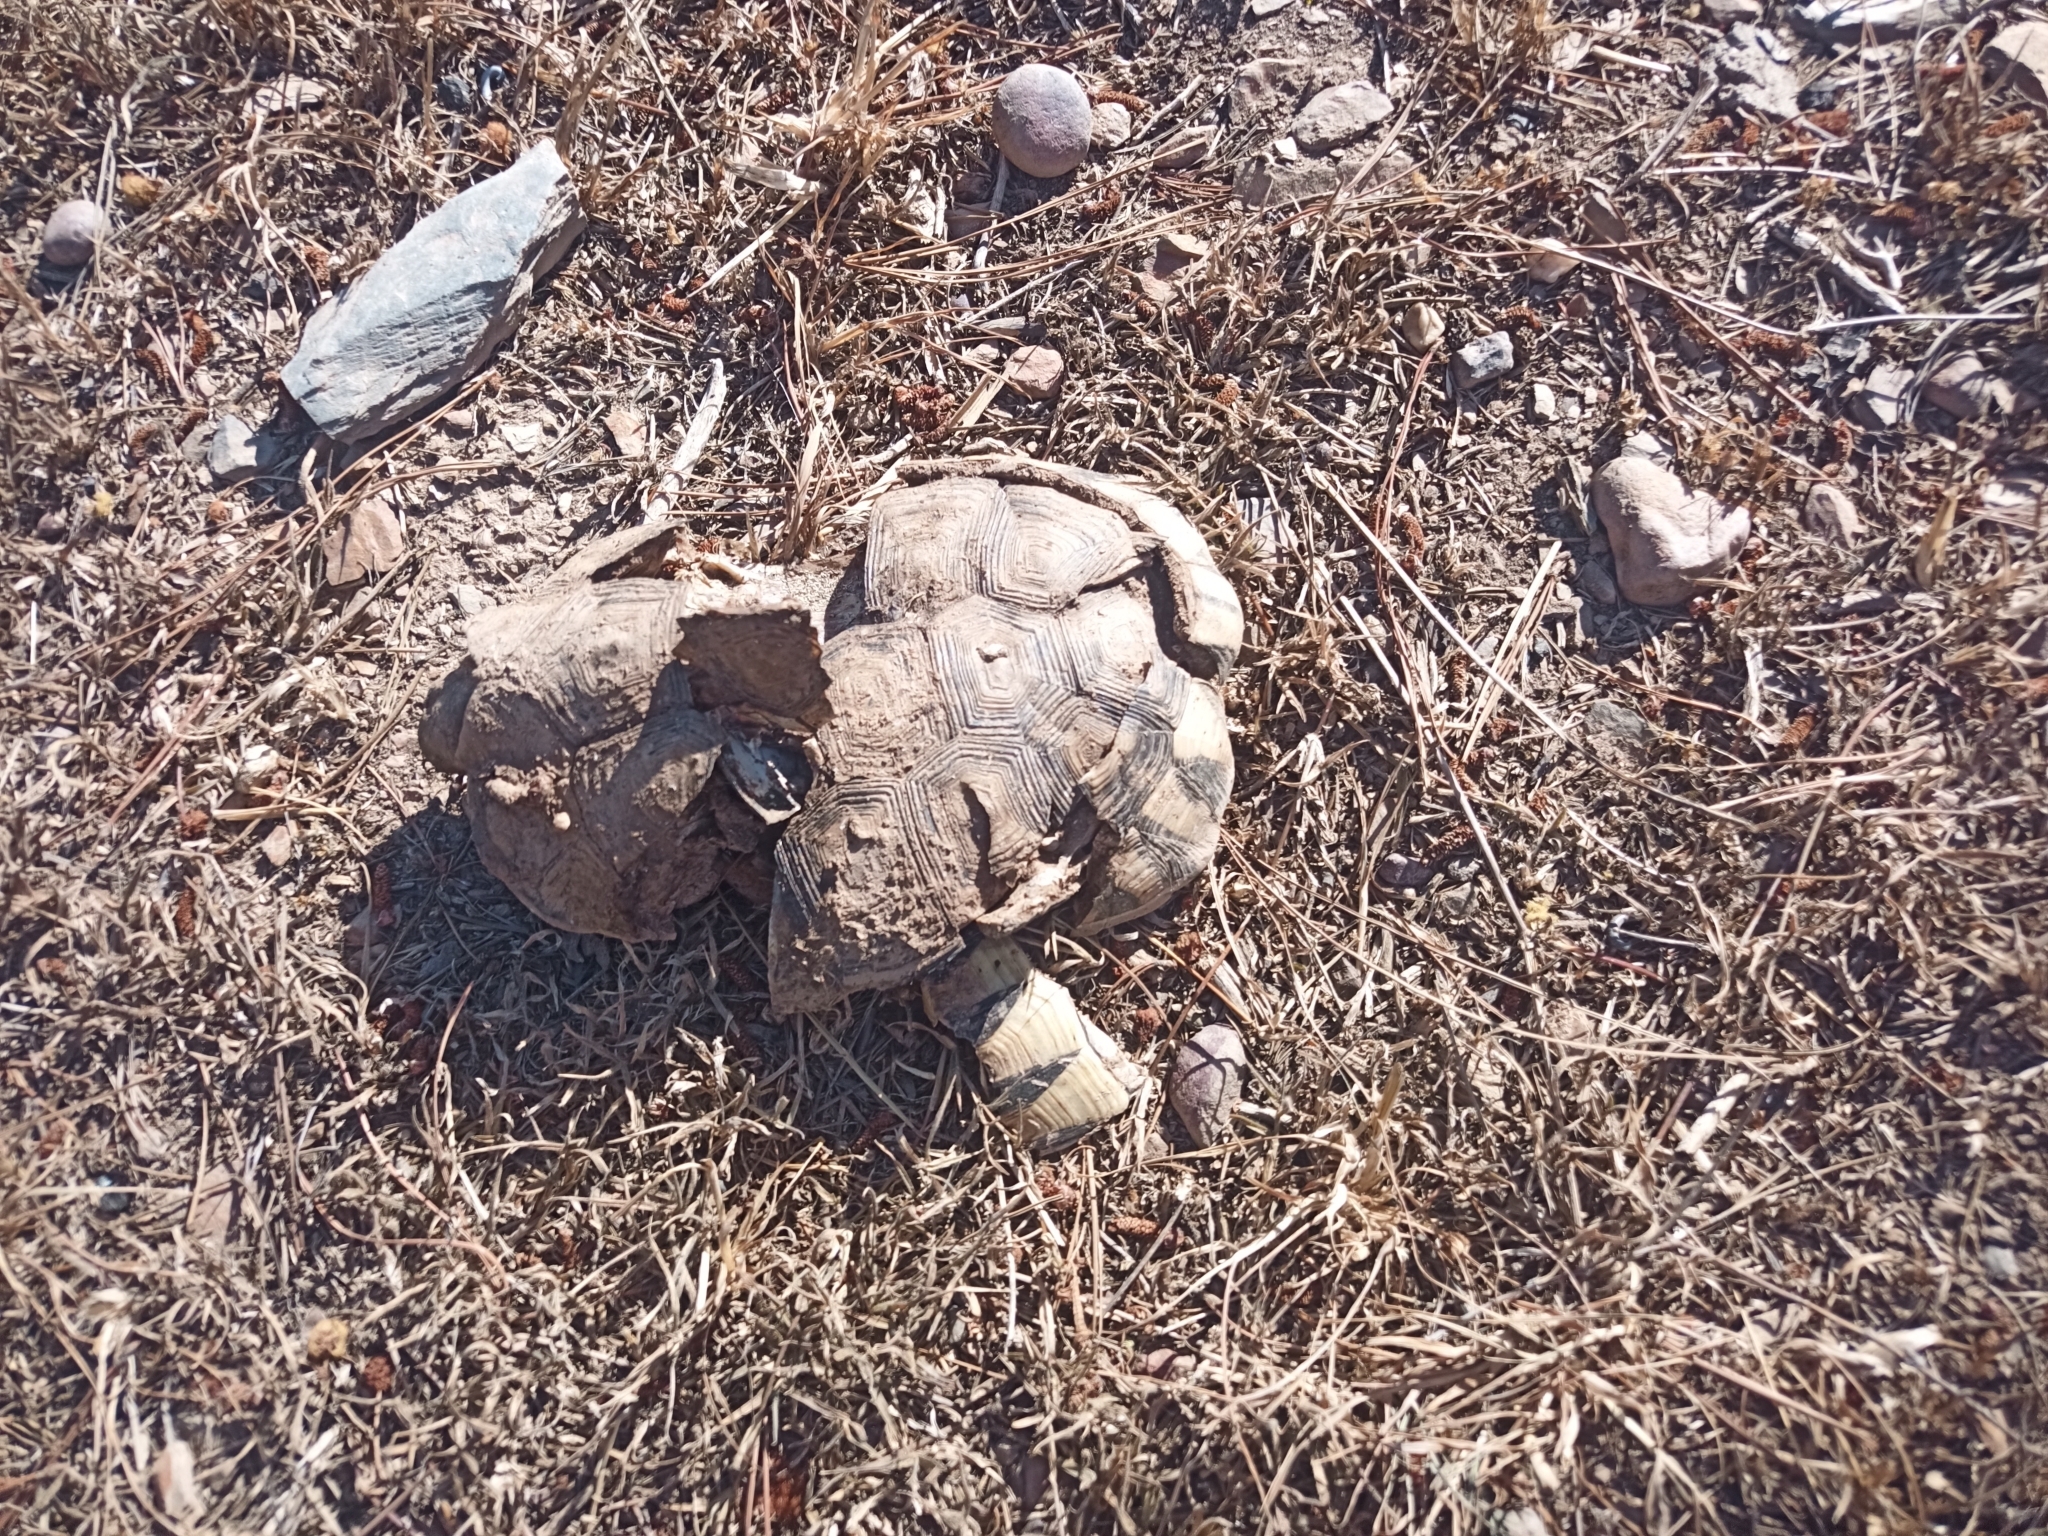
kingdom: Animalia
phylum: Chordata
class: Testudines
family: Testudinidae
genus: Chersina
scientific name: Chersina angulata
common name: South african bowsprit tortoise
